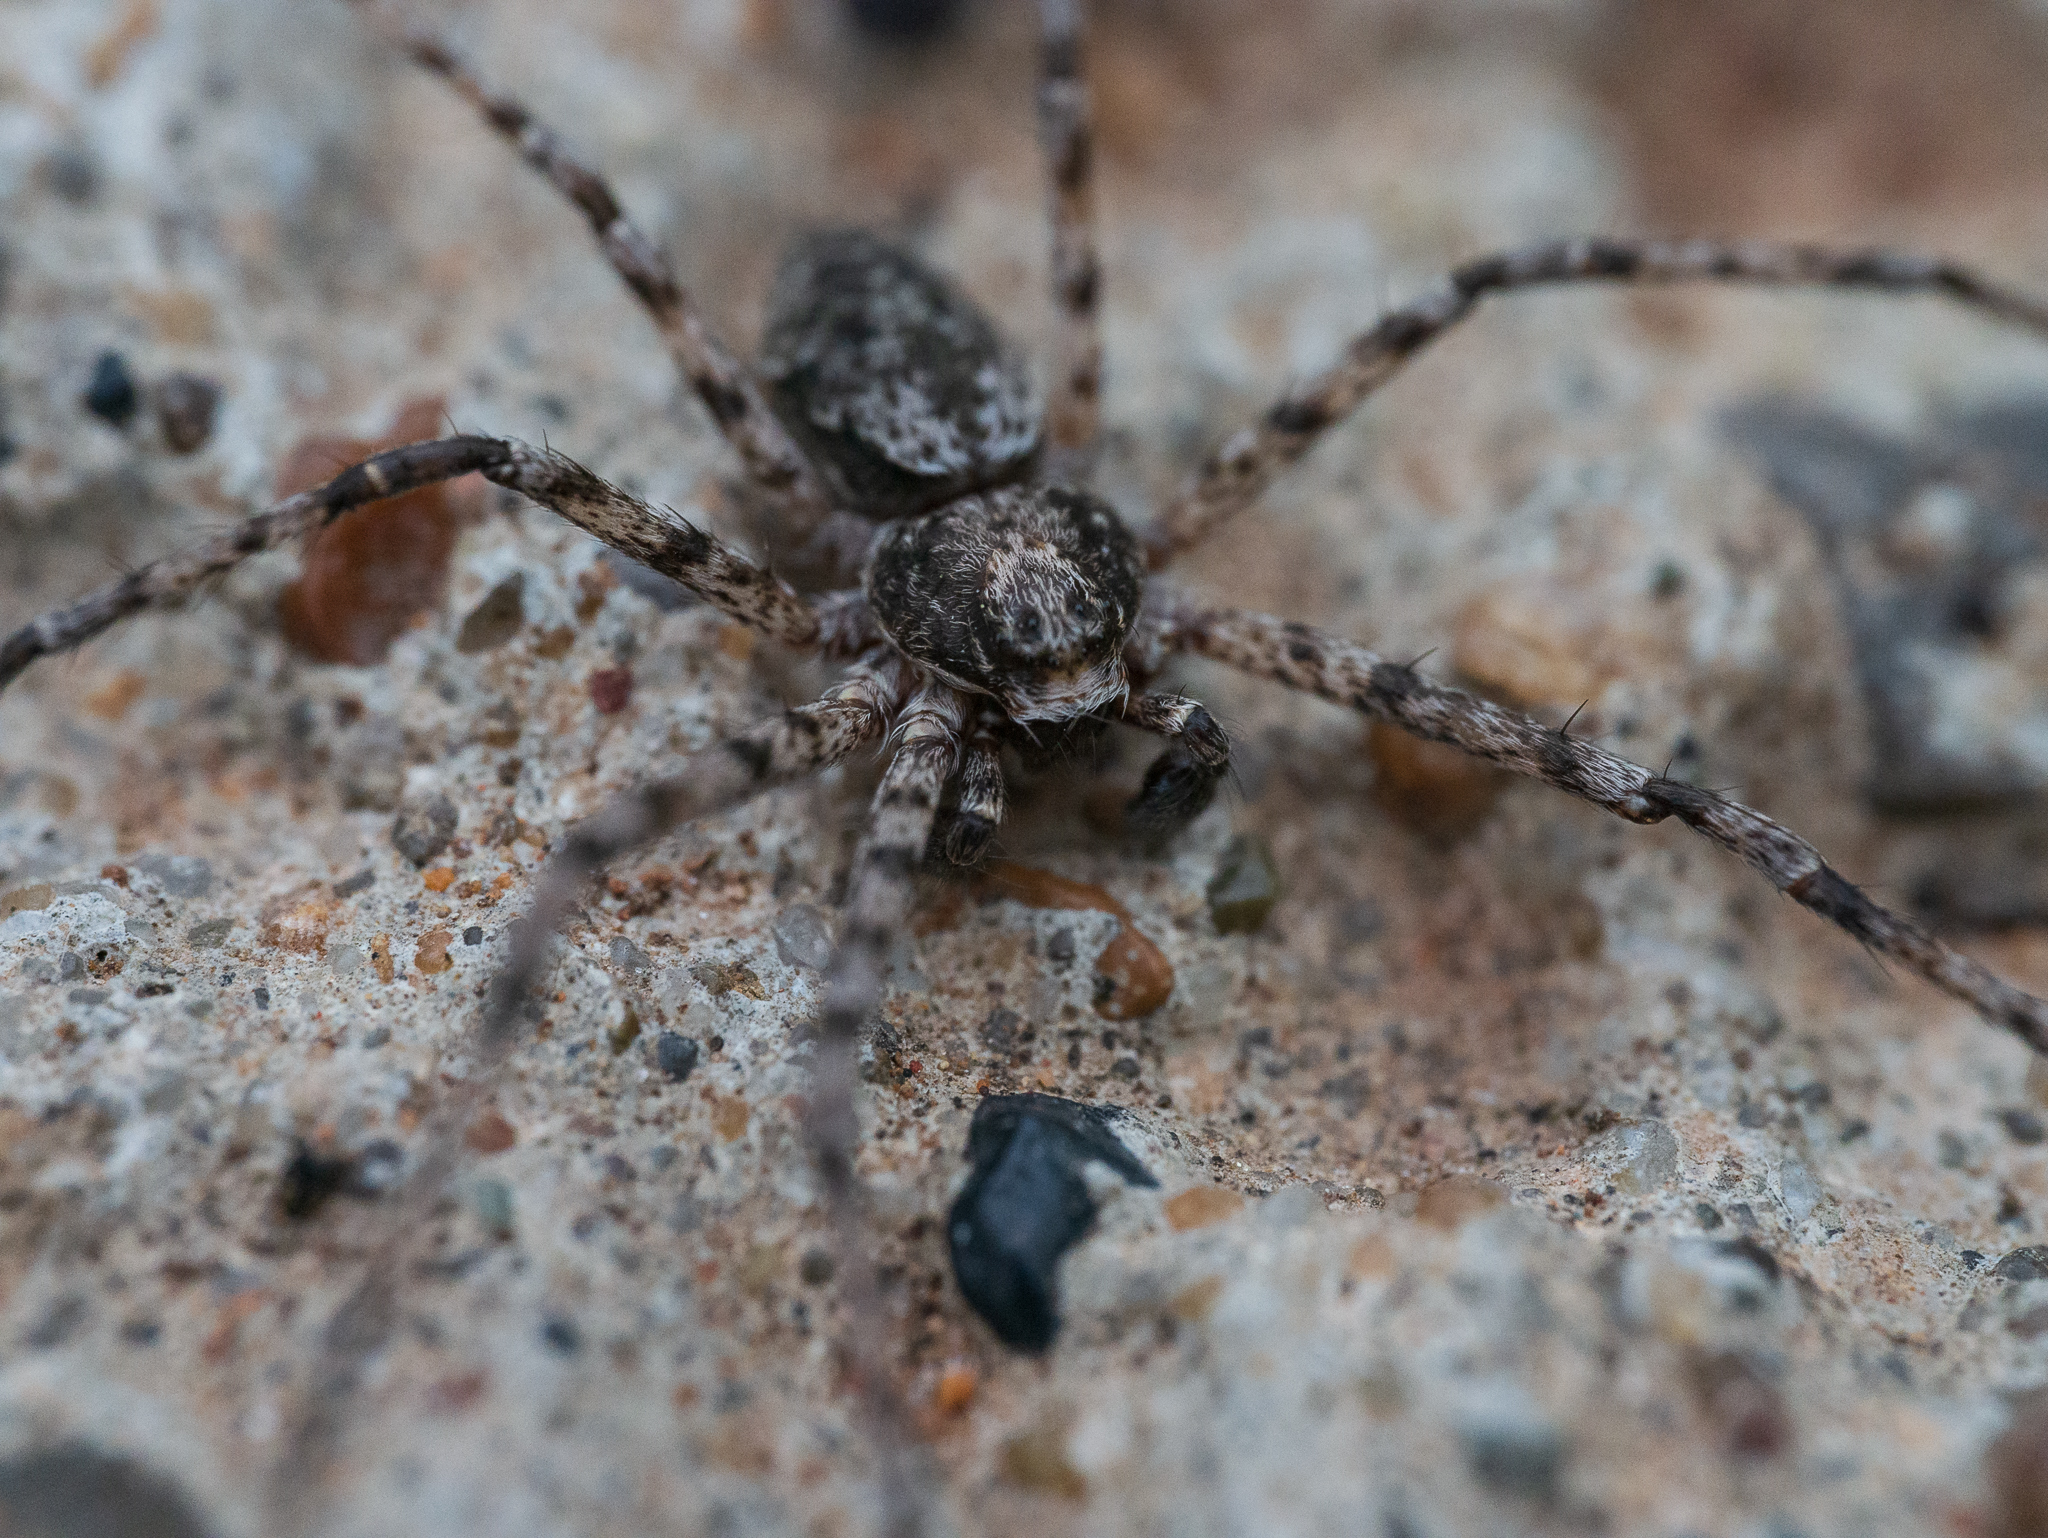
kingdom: Animalia
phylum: Arthropoda
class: Arachnida
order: Araneae
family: Philodromidae
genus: Philodromus
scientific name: Philodromus margaritatus
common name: Lichen running-spider
